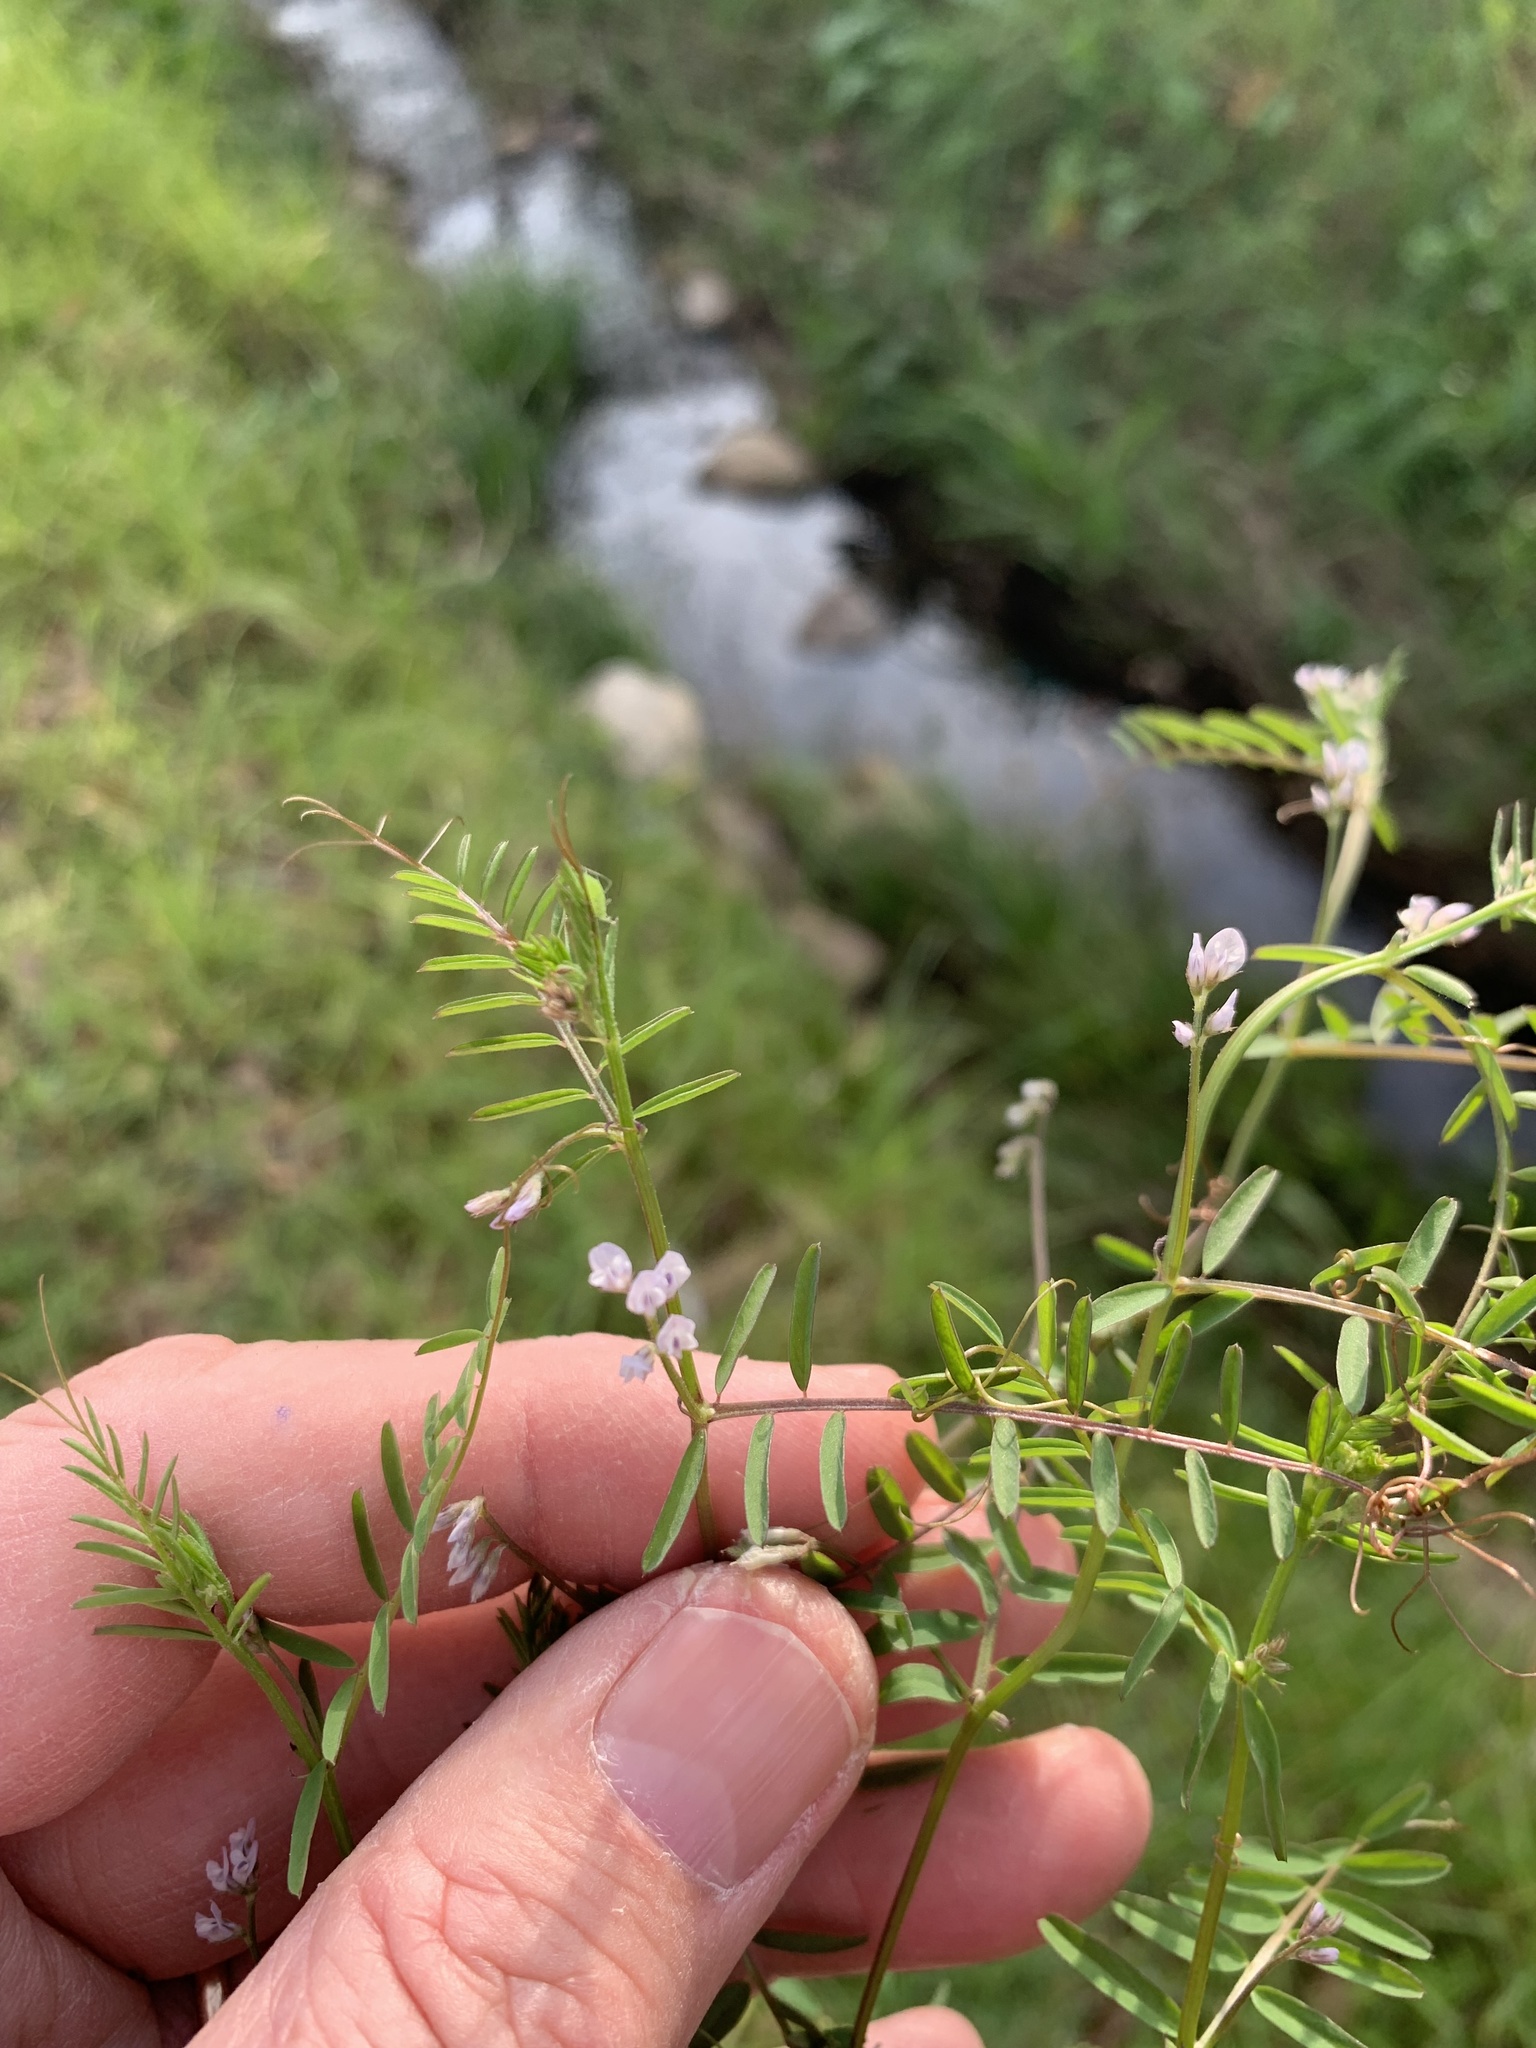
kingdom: Plantae
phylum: Tracheophyta
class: Magnoliopsida
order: Fabales
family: Fabaceae
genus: Vicia
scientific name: Vicia hirsuta
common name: Tiny vetch
